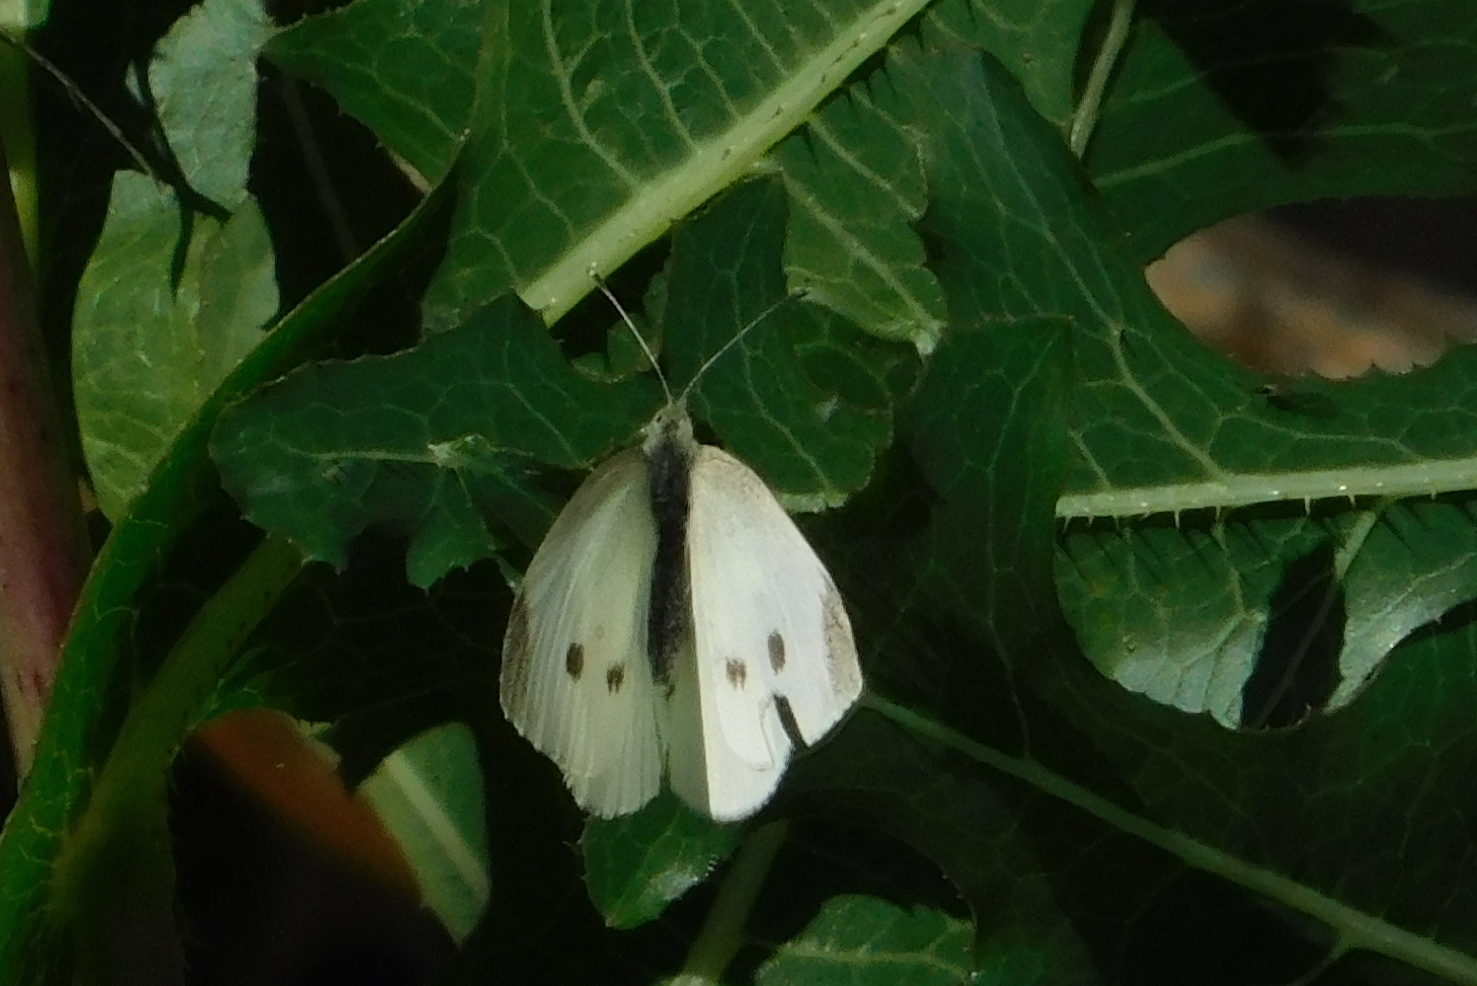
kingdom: Animalia
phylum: Arthropoda
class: Insecta
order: Lepidoptera
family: Pieridae
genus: Pieris
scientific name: Pieris rapae
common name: Small white
